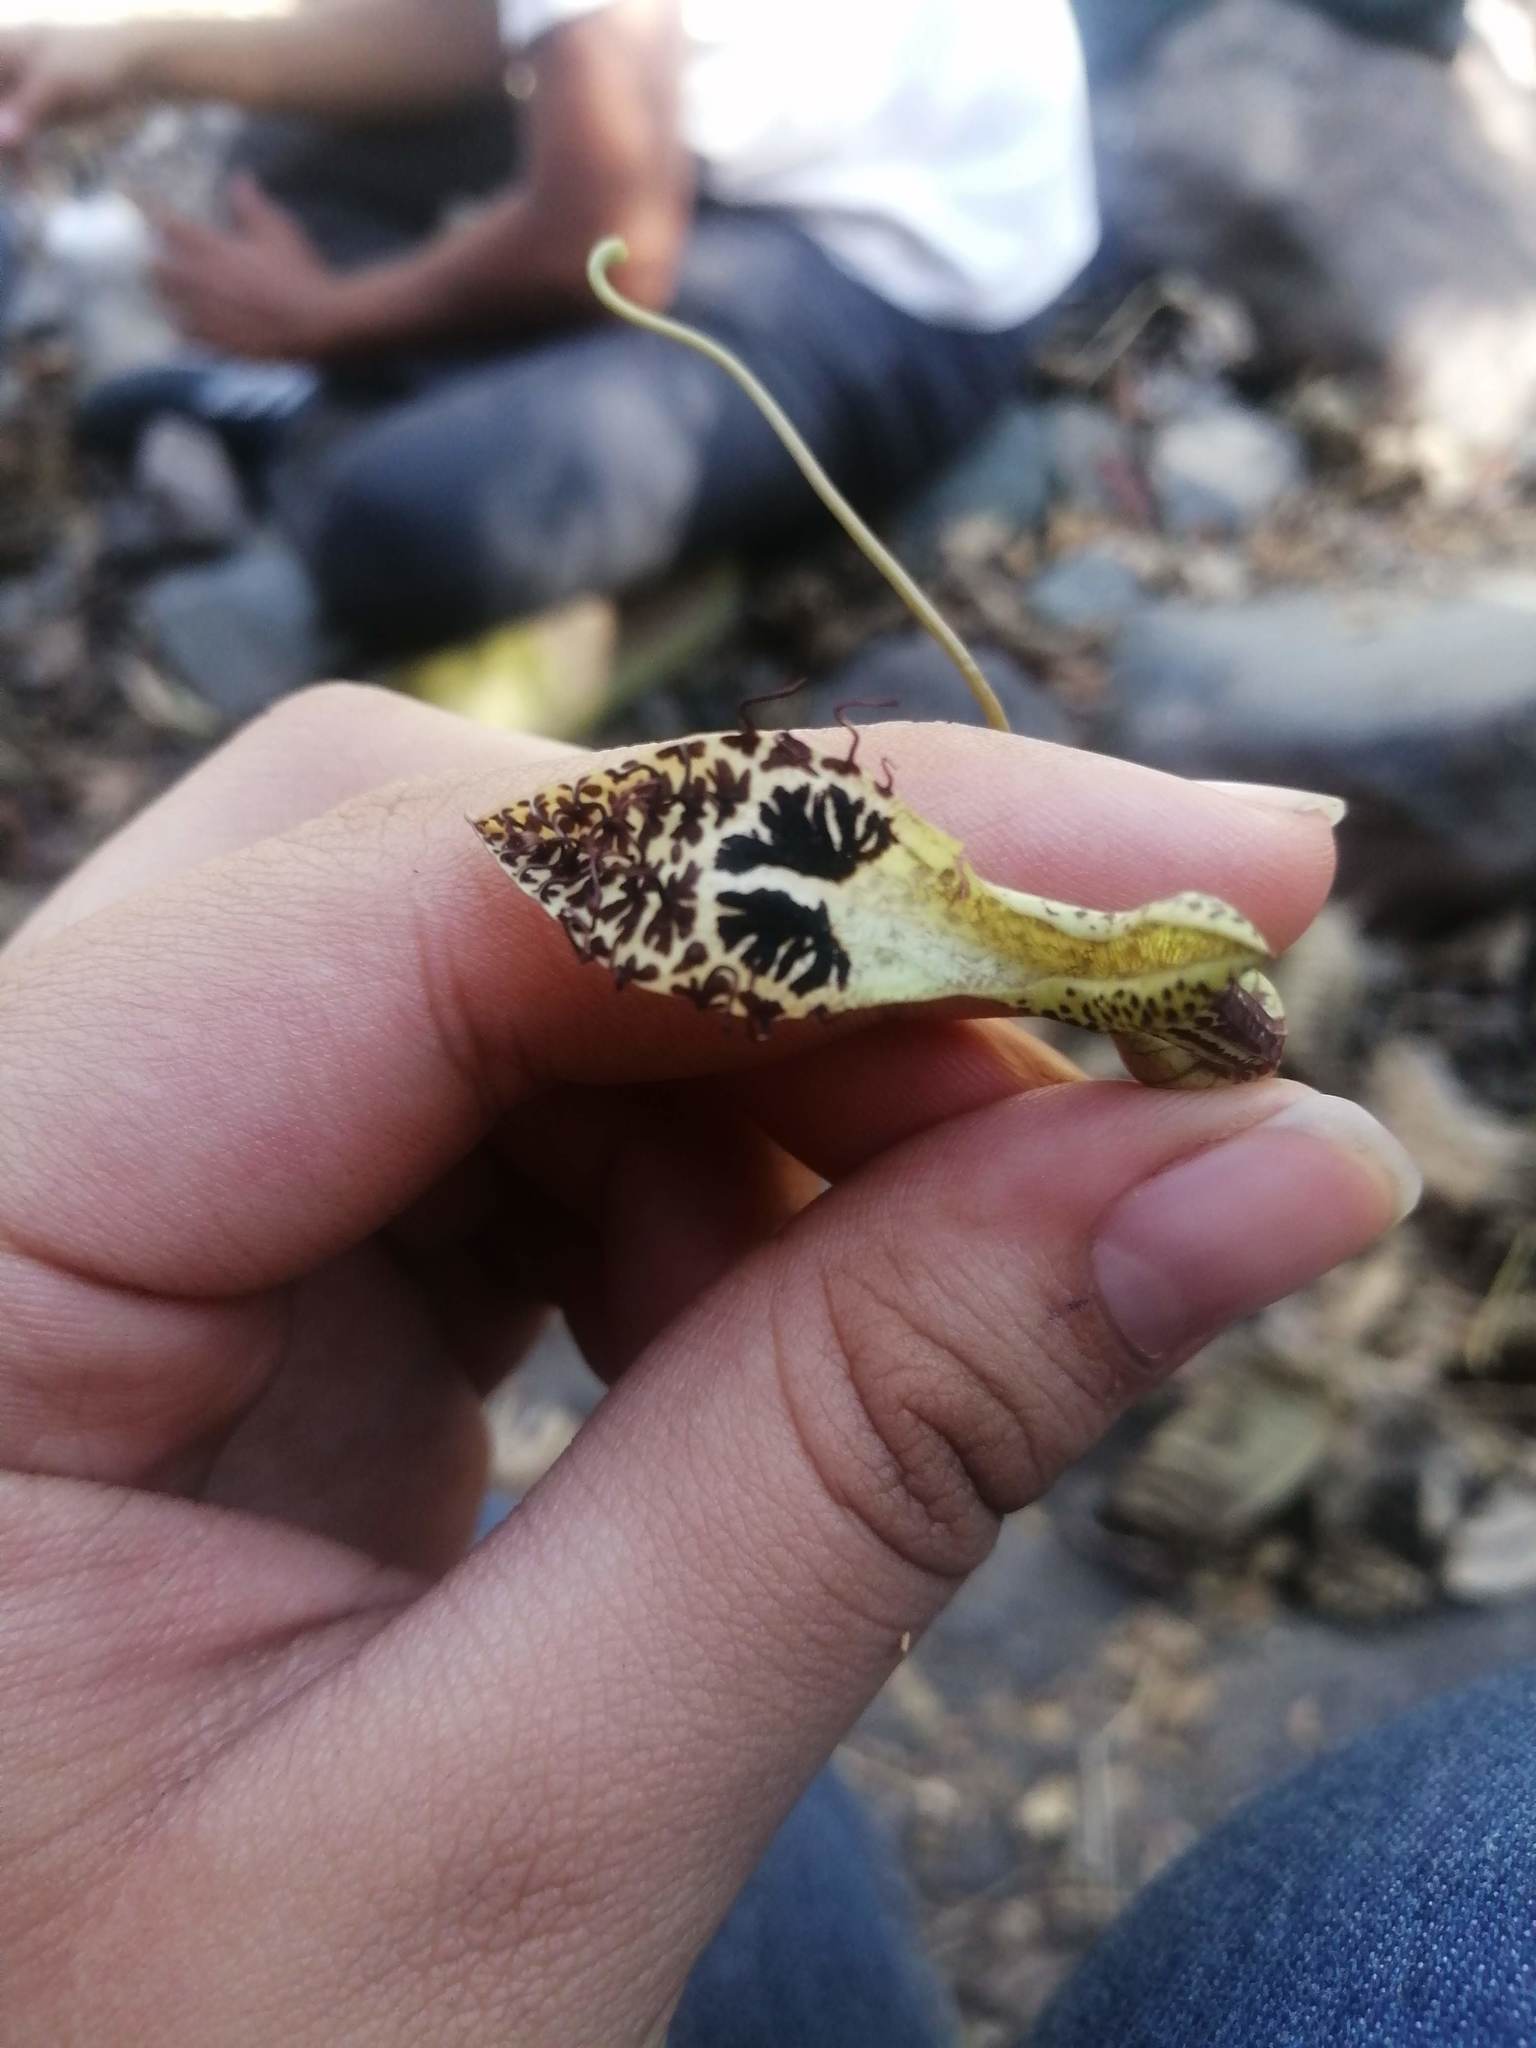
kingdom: Plantae
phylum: Tracheophyta
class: Magnoliopsida
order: Piperales
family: Aristolochiaceae
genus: Aristolochia
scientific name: Aristolochia taliscana
